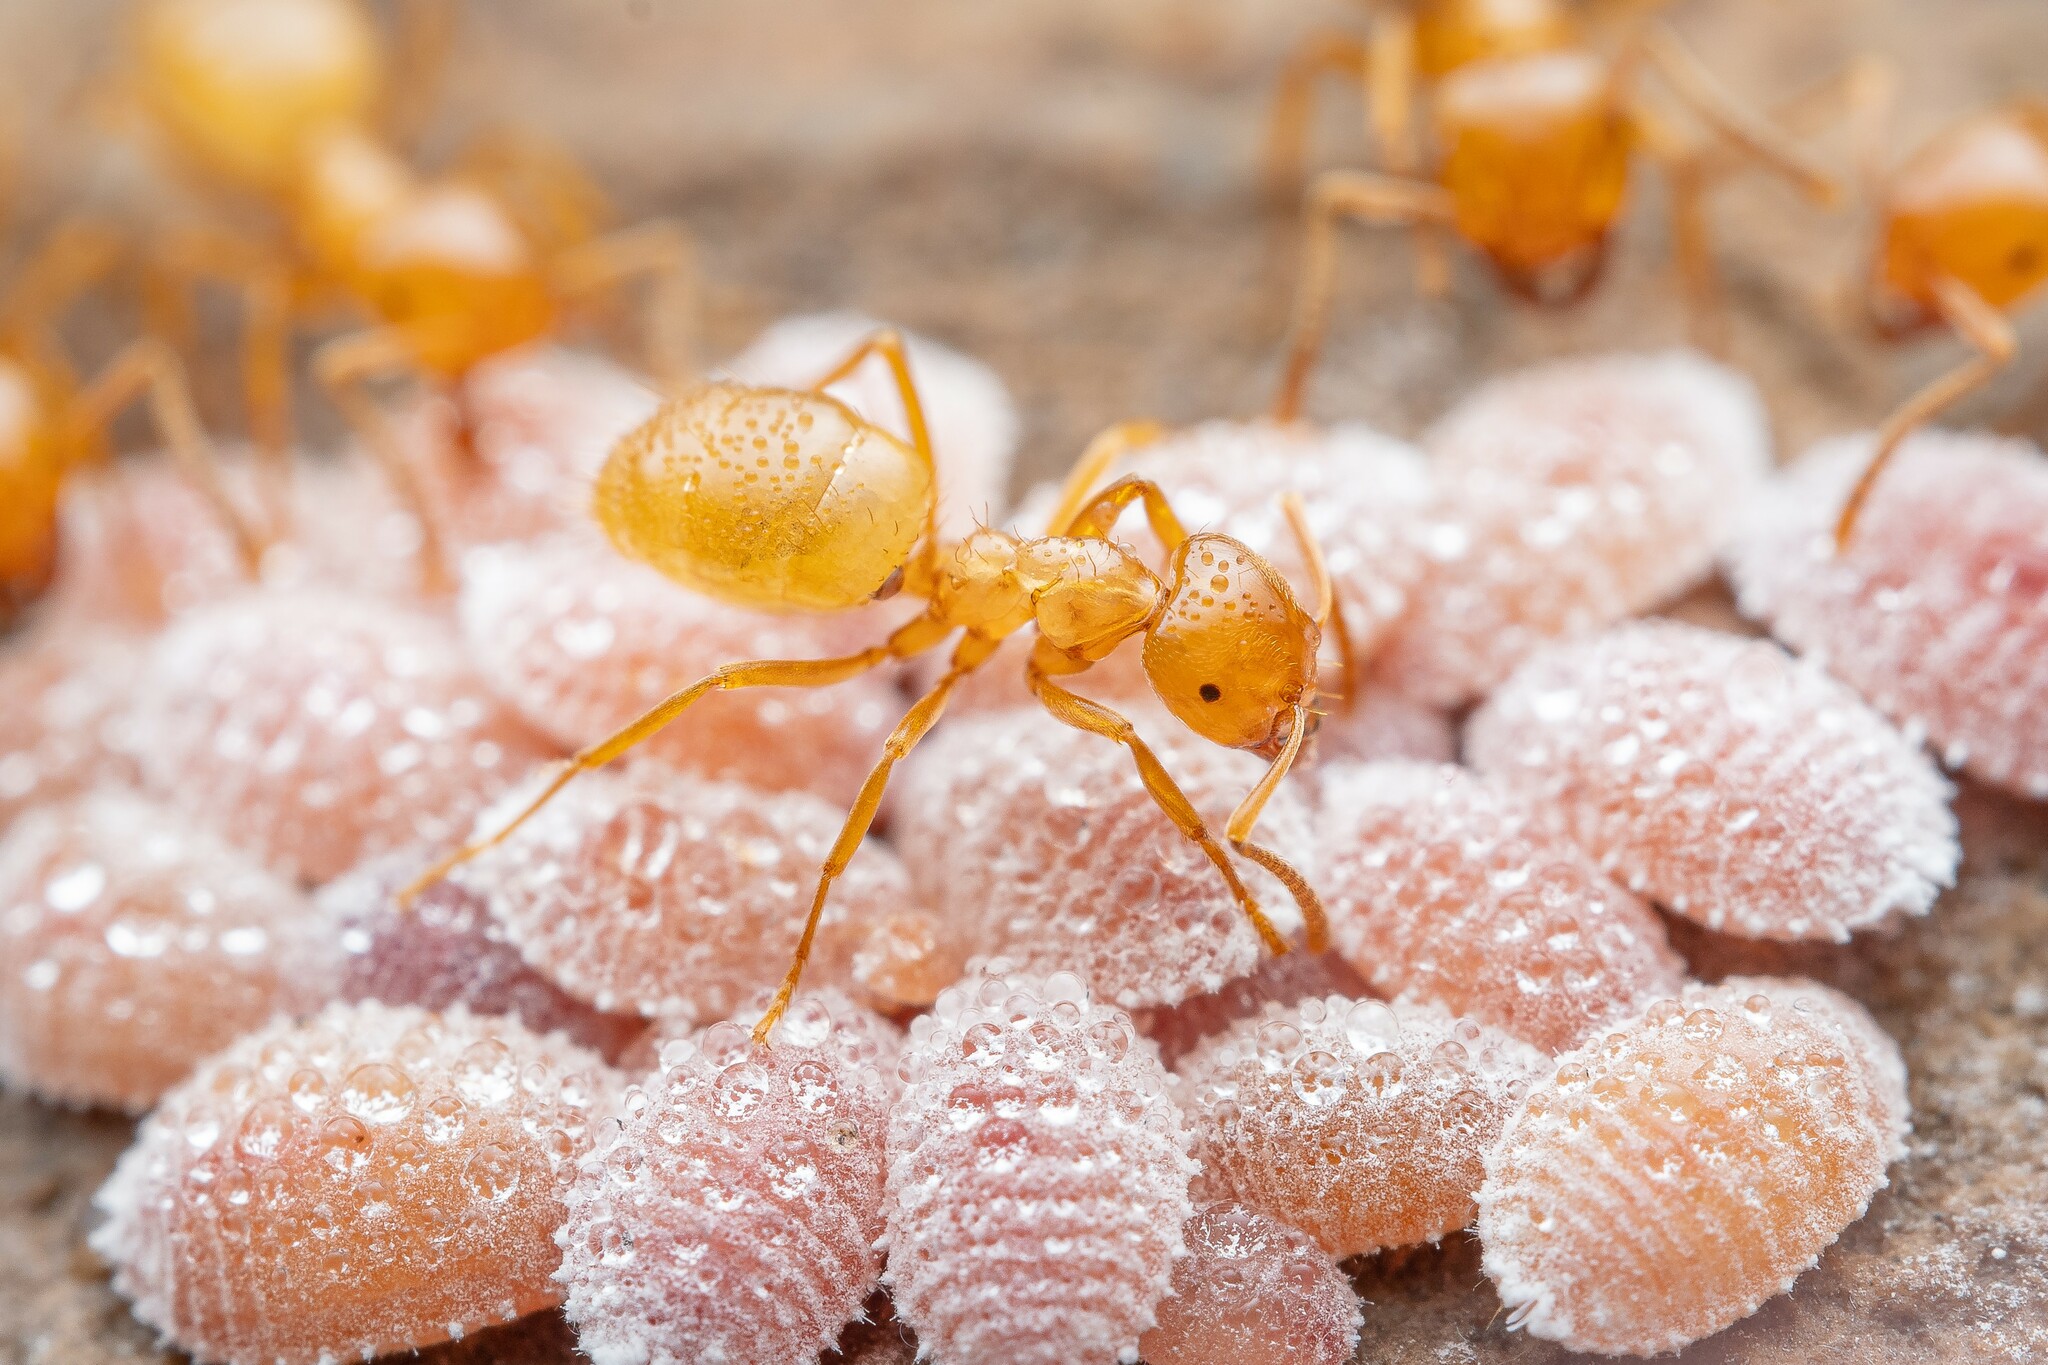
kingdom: Animalia
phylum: Arthropoda
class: Insecta
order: Hymenoptera
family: Formicidae
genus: Lasius
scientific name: Lasius arizonicus
